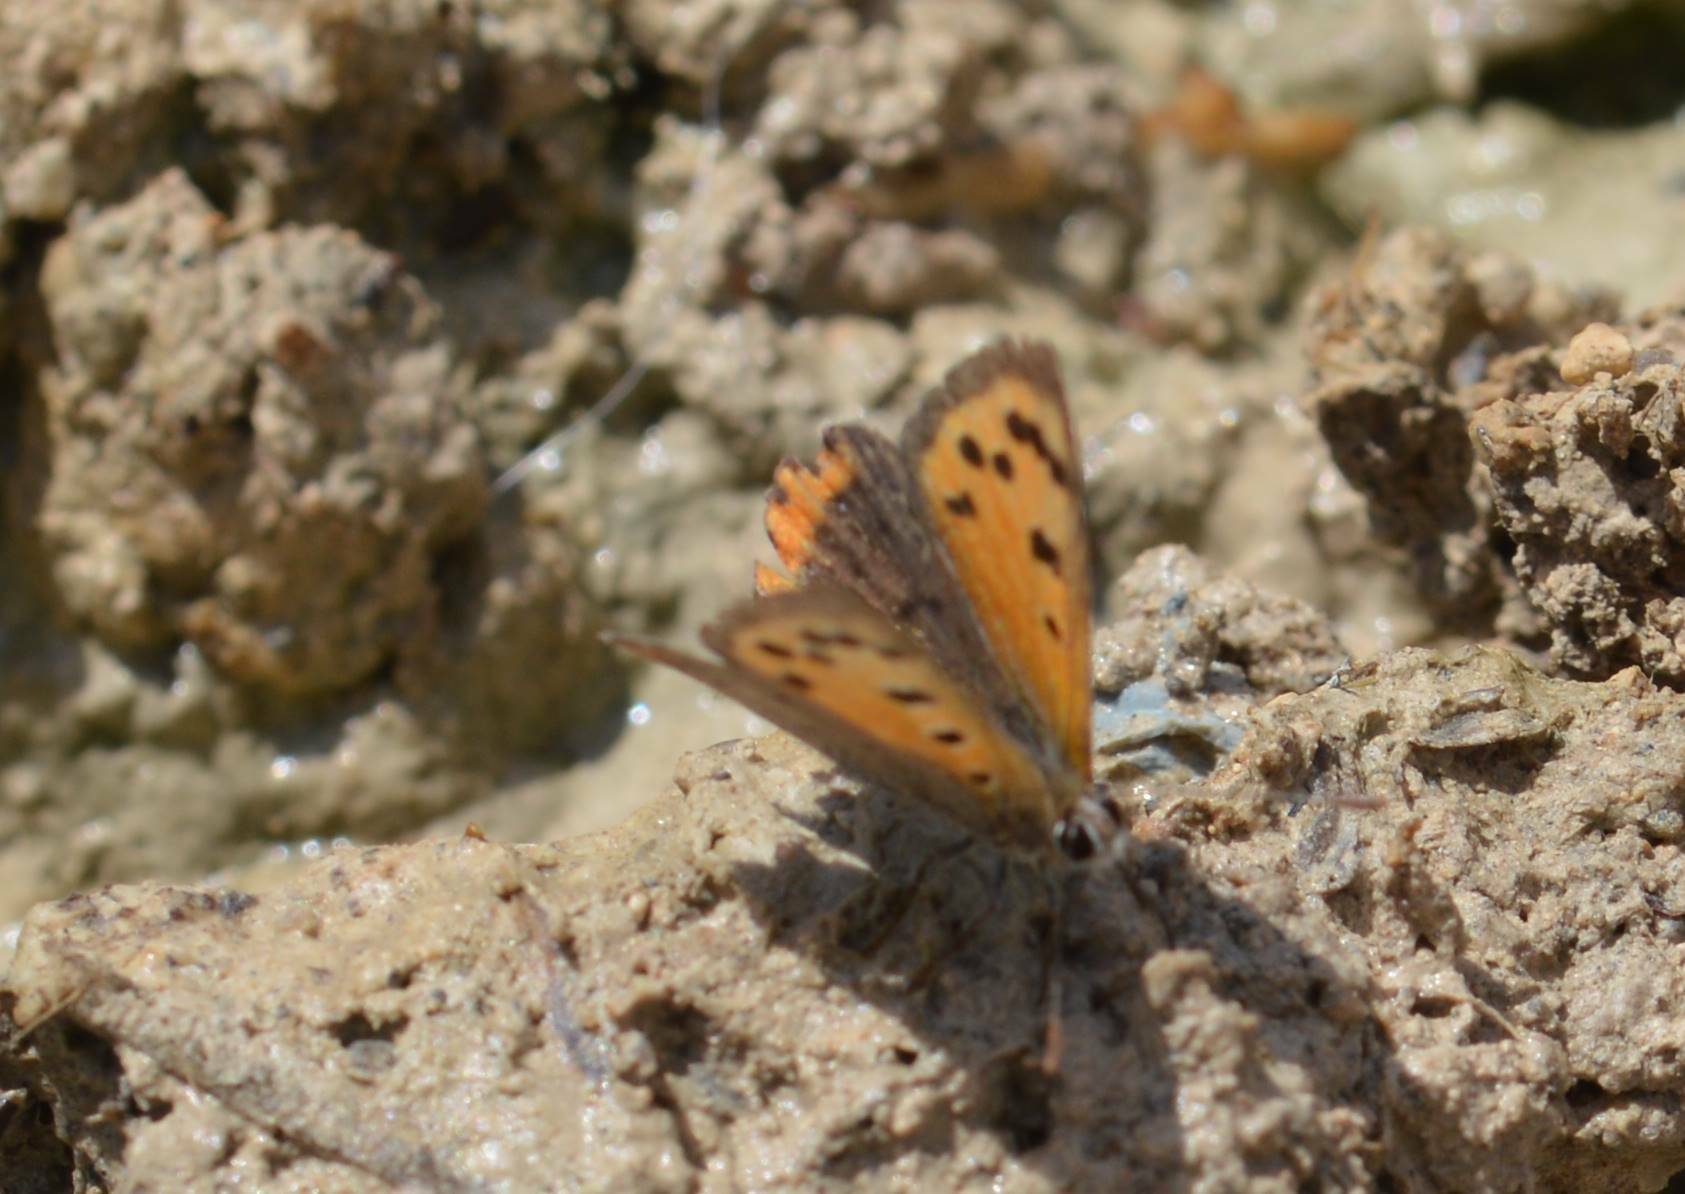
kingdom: Animalia
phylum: Arthropoda
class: Insecta
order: Lepidoptera
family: Lycaenidae
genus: Lycaena
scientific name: Lycaena phlaeas
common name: Small copper
